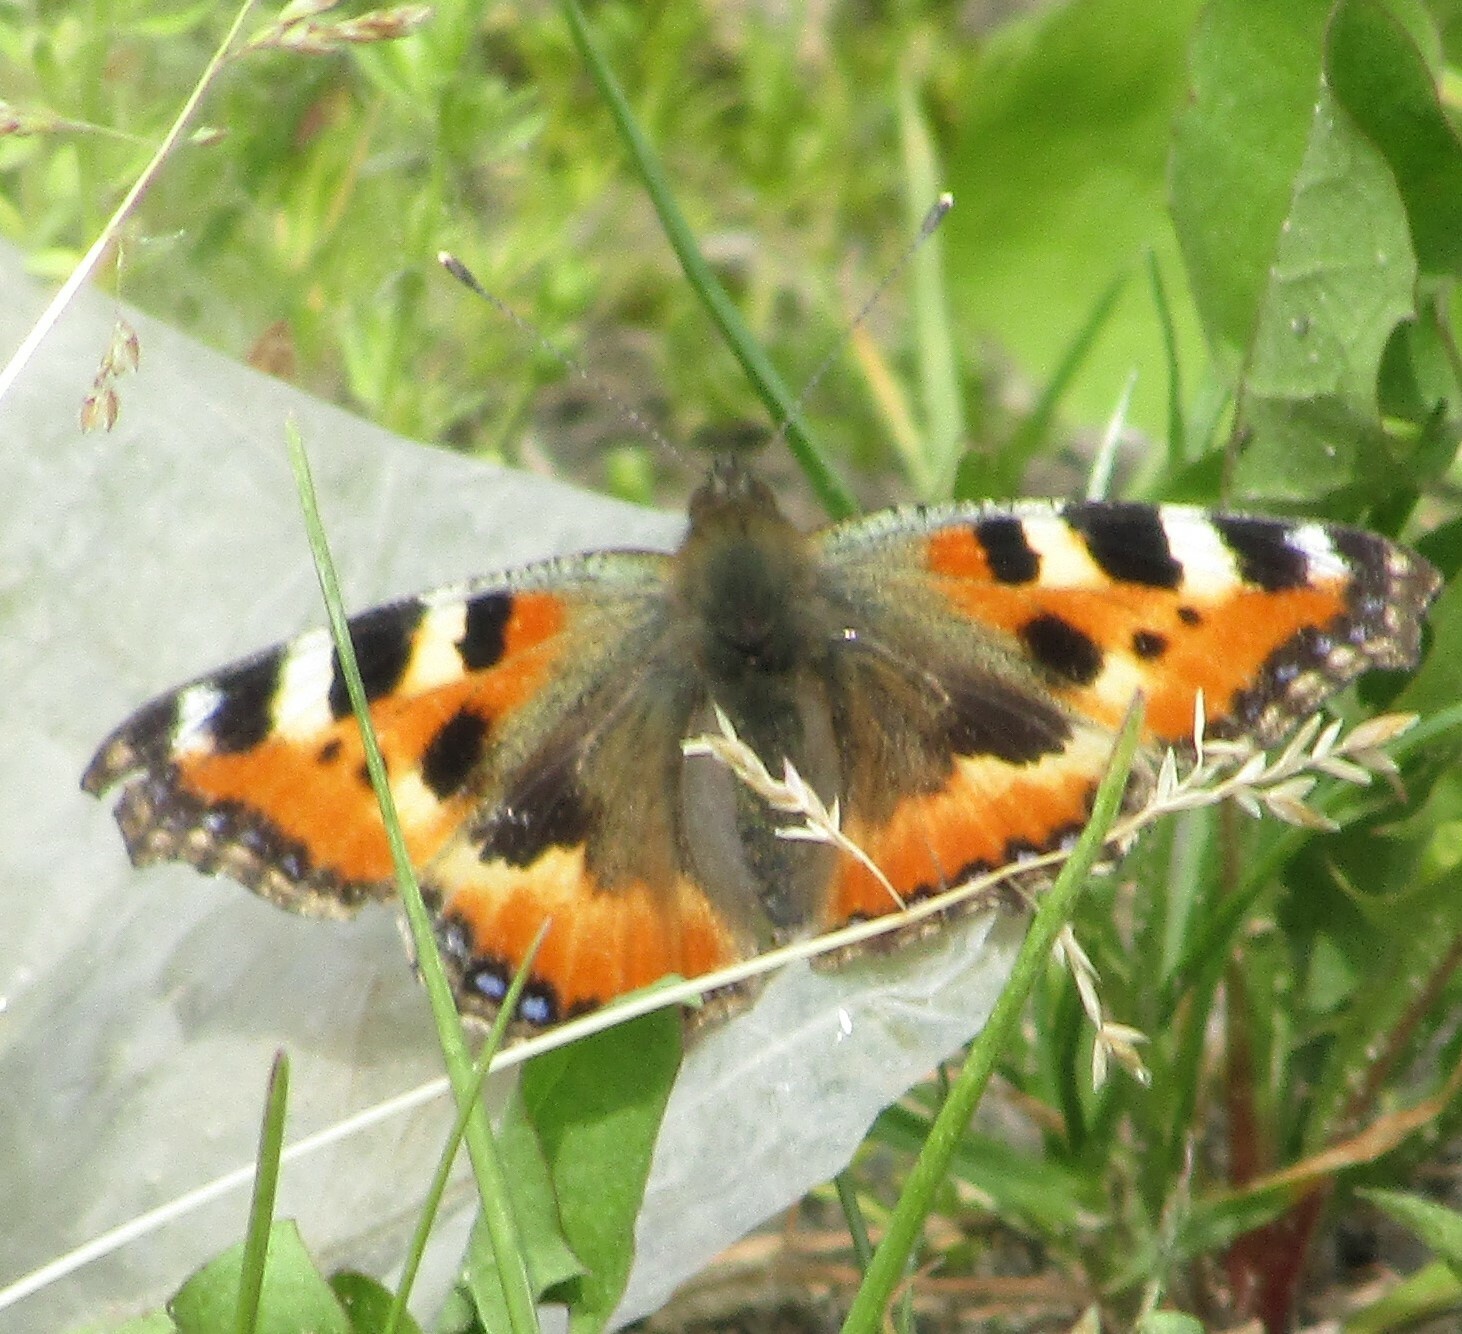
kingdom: Animalia
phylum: Arthropoda
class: Insecta
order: Lepidoptera
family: Nymphalidae
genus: Aglais
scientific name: Aglais urticae
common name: Small tortoiseshell
